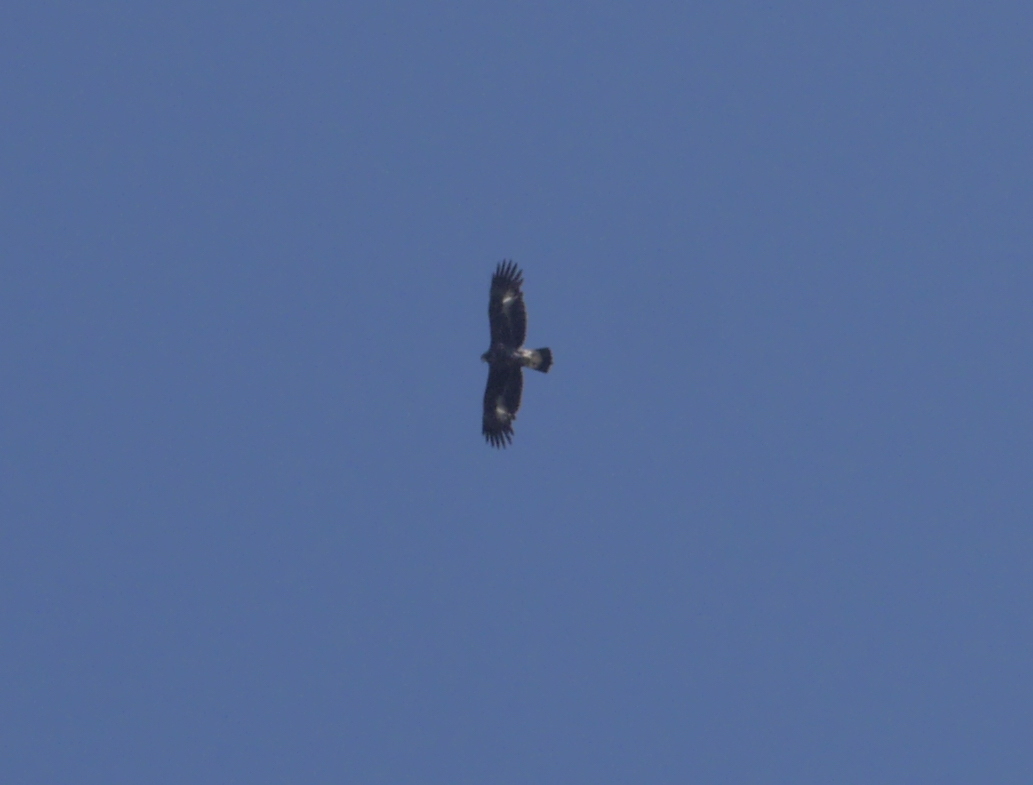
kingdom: Animalia
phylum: Chordata
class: Aves
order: Accipitriformes
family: Accipitridae
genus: Aquila
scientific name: Aquila chrysaetos
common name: Golden eagle
